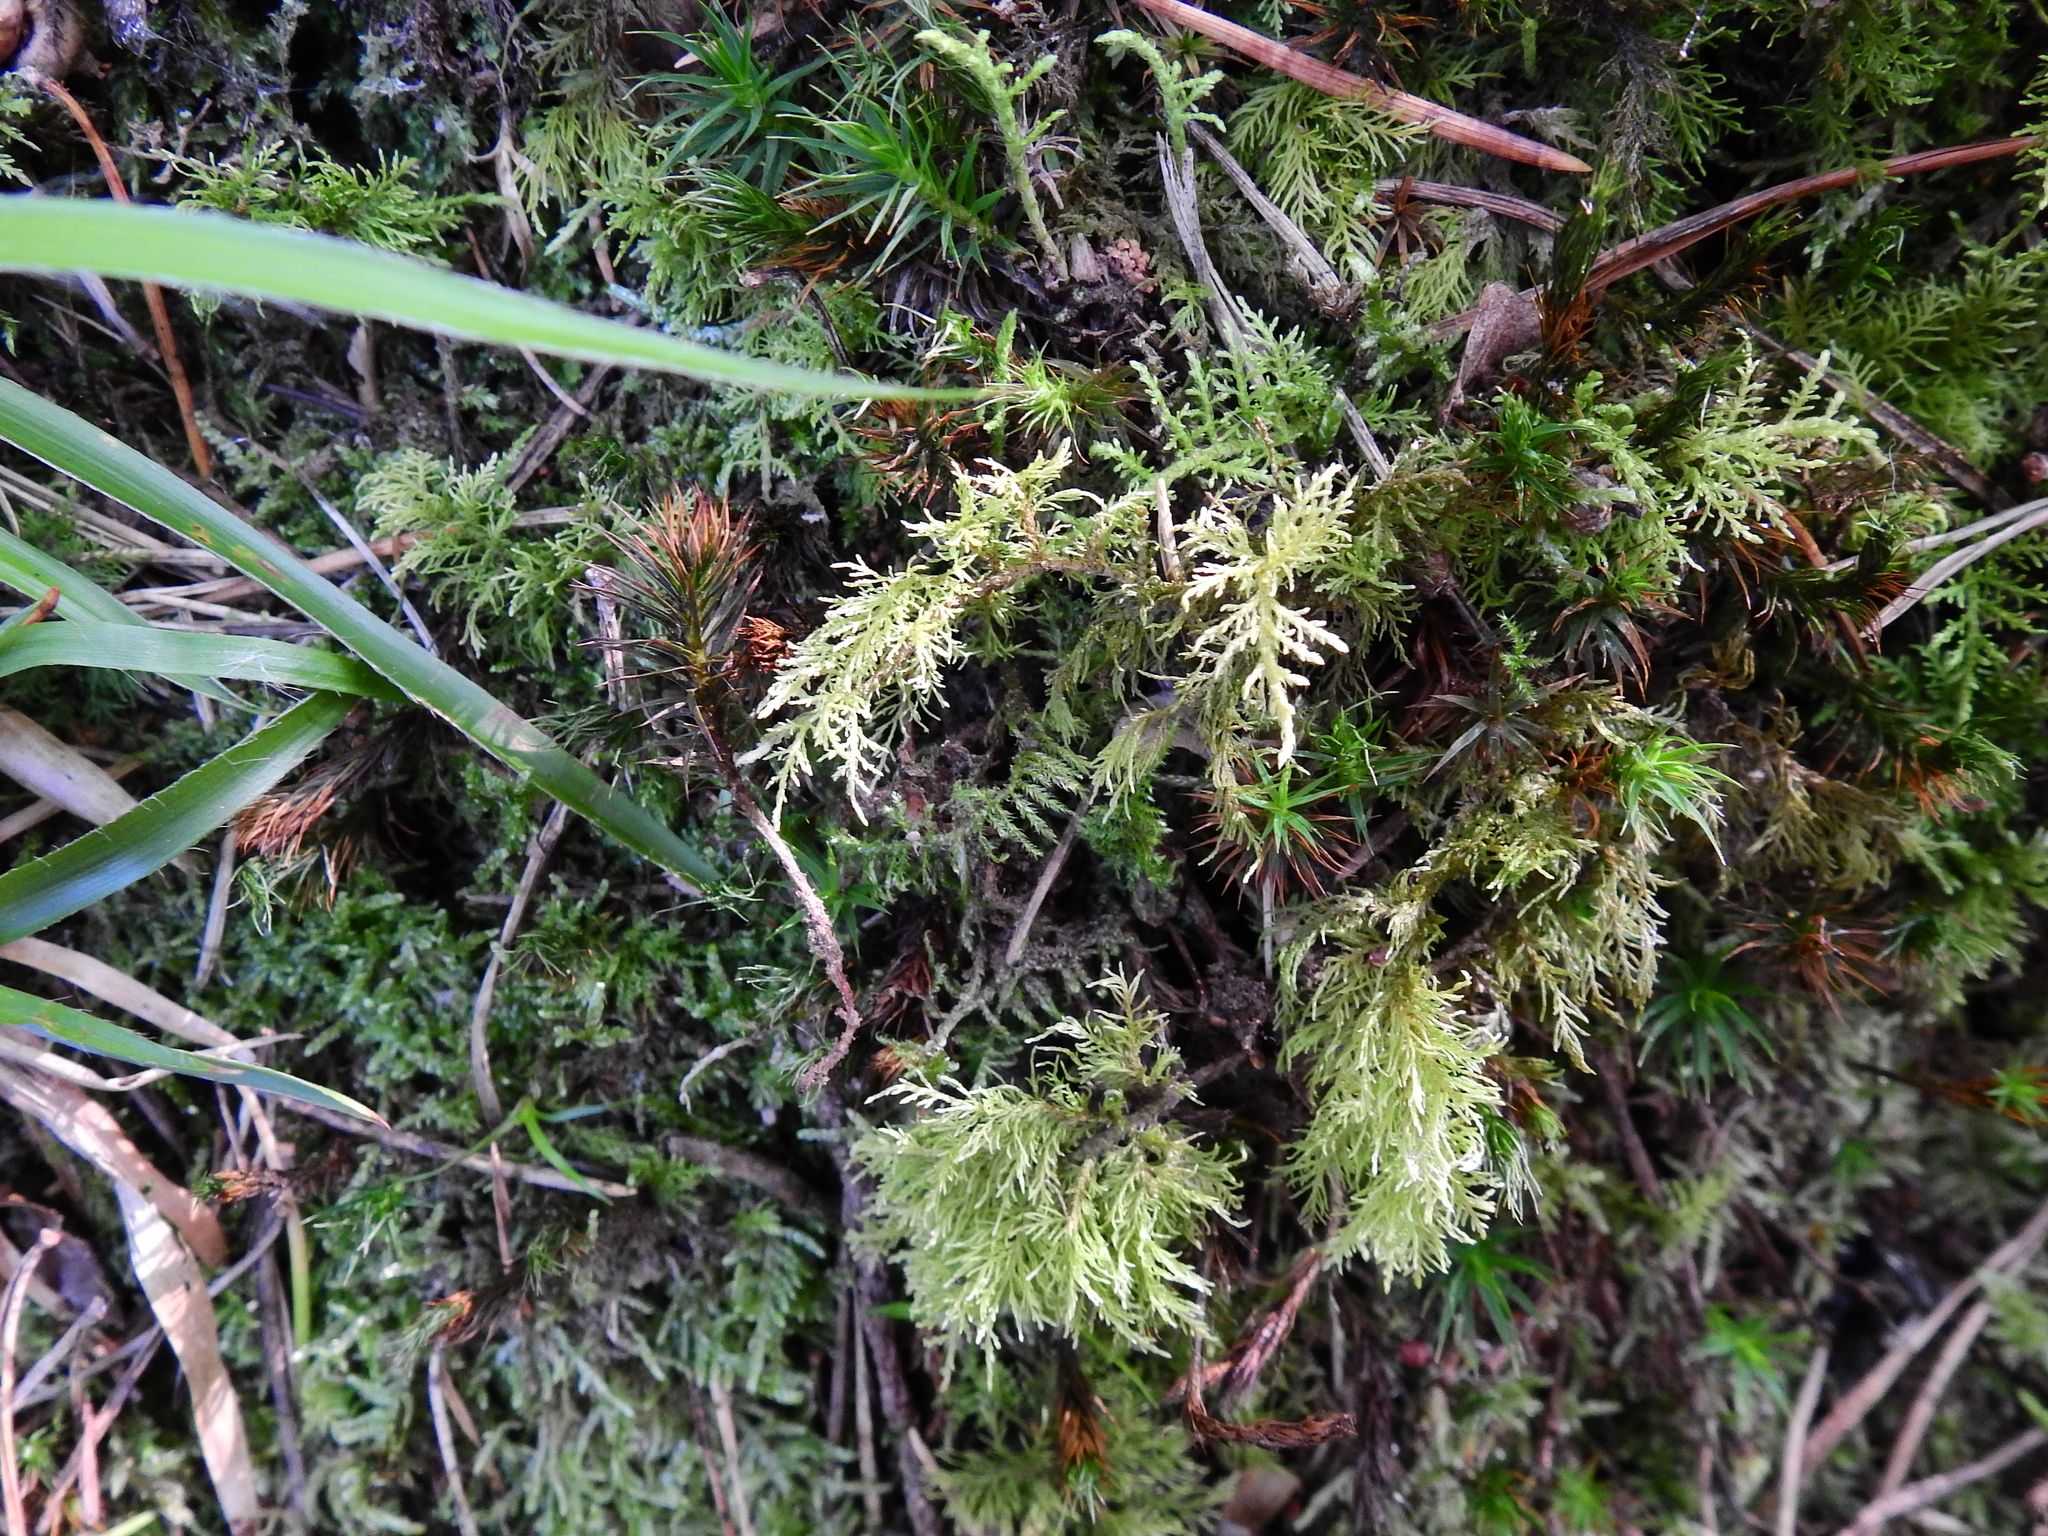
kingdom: Plantae
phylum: Bryophyta
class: Bryopsida
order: Hypnales
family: Thuidiaceae
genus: Thuidium
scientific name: Thuidium tamariscinum
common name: Common tamarisk-moss
